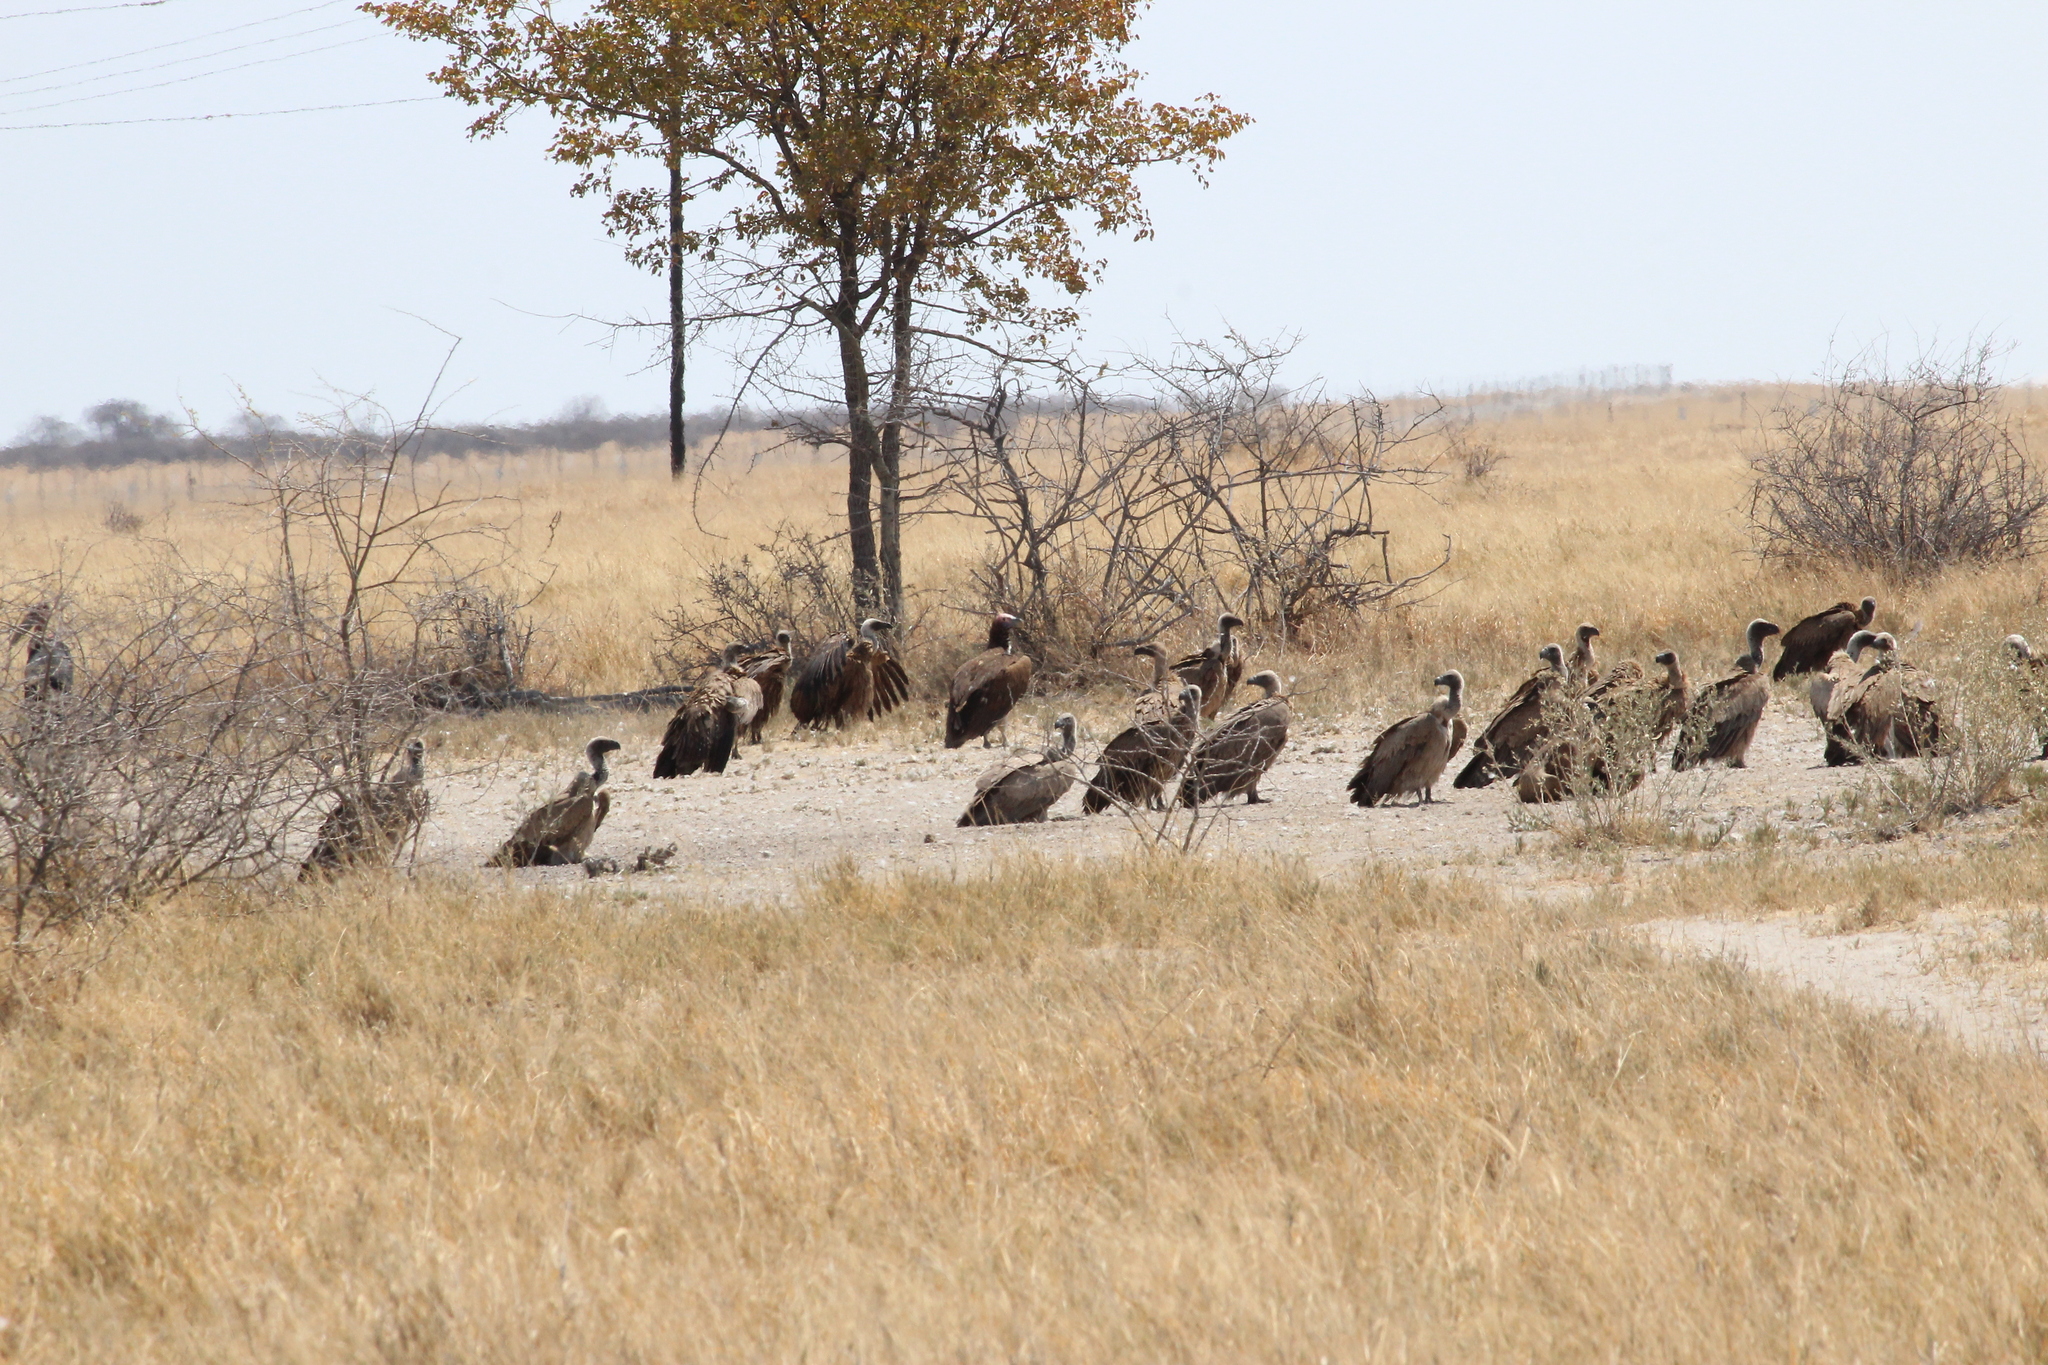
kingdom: Animalia
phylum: Chordata
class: Aves
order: Accipitriformes
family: Accipitridae
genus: Gyps
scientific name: Gyps africanus
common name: White-backed vulture
